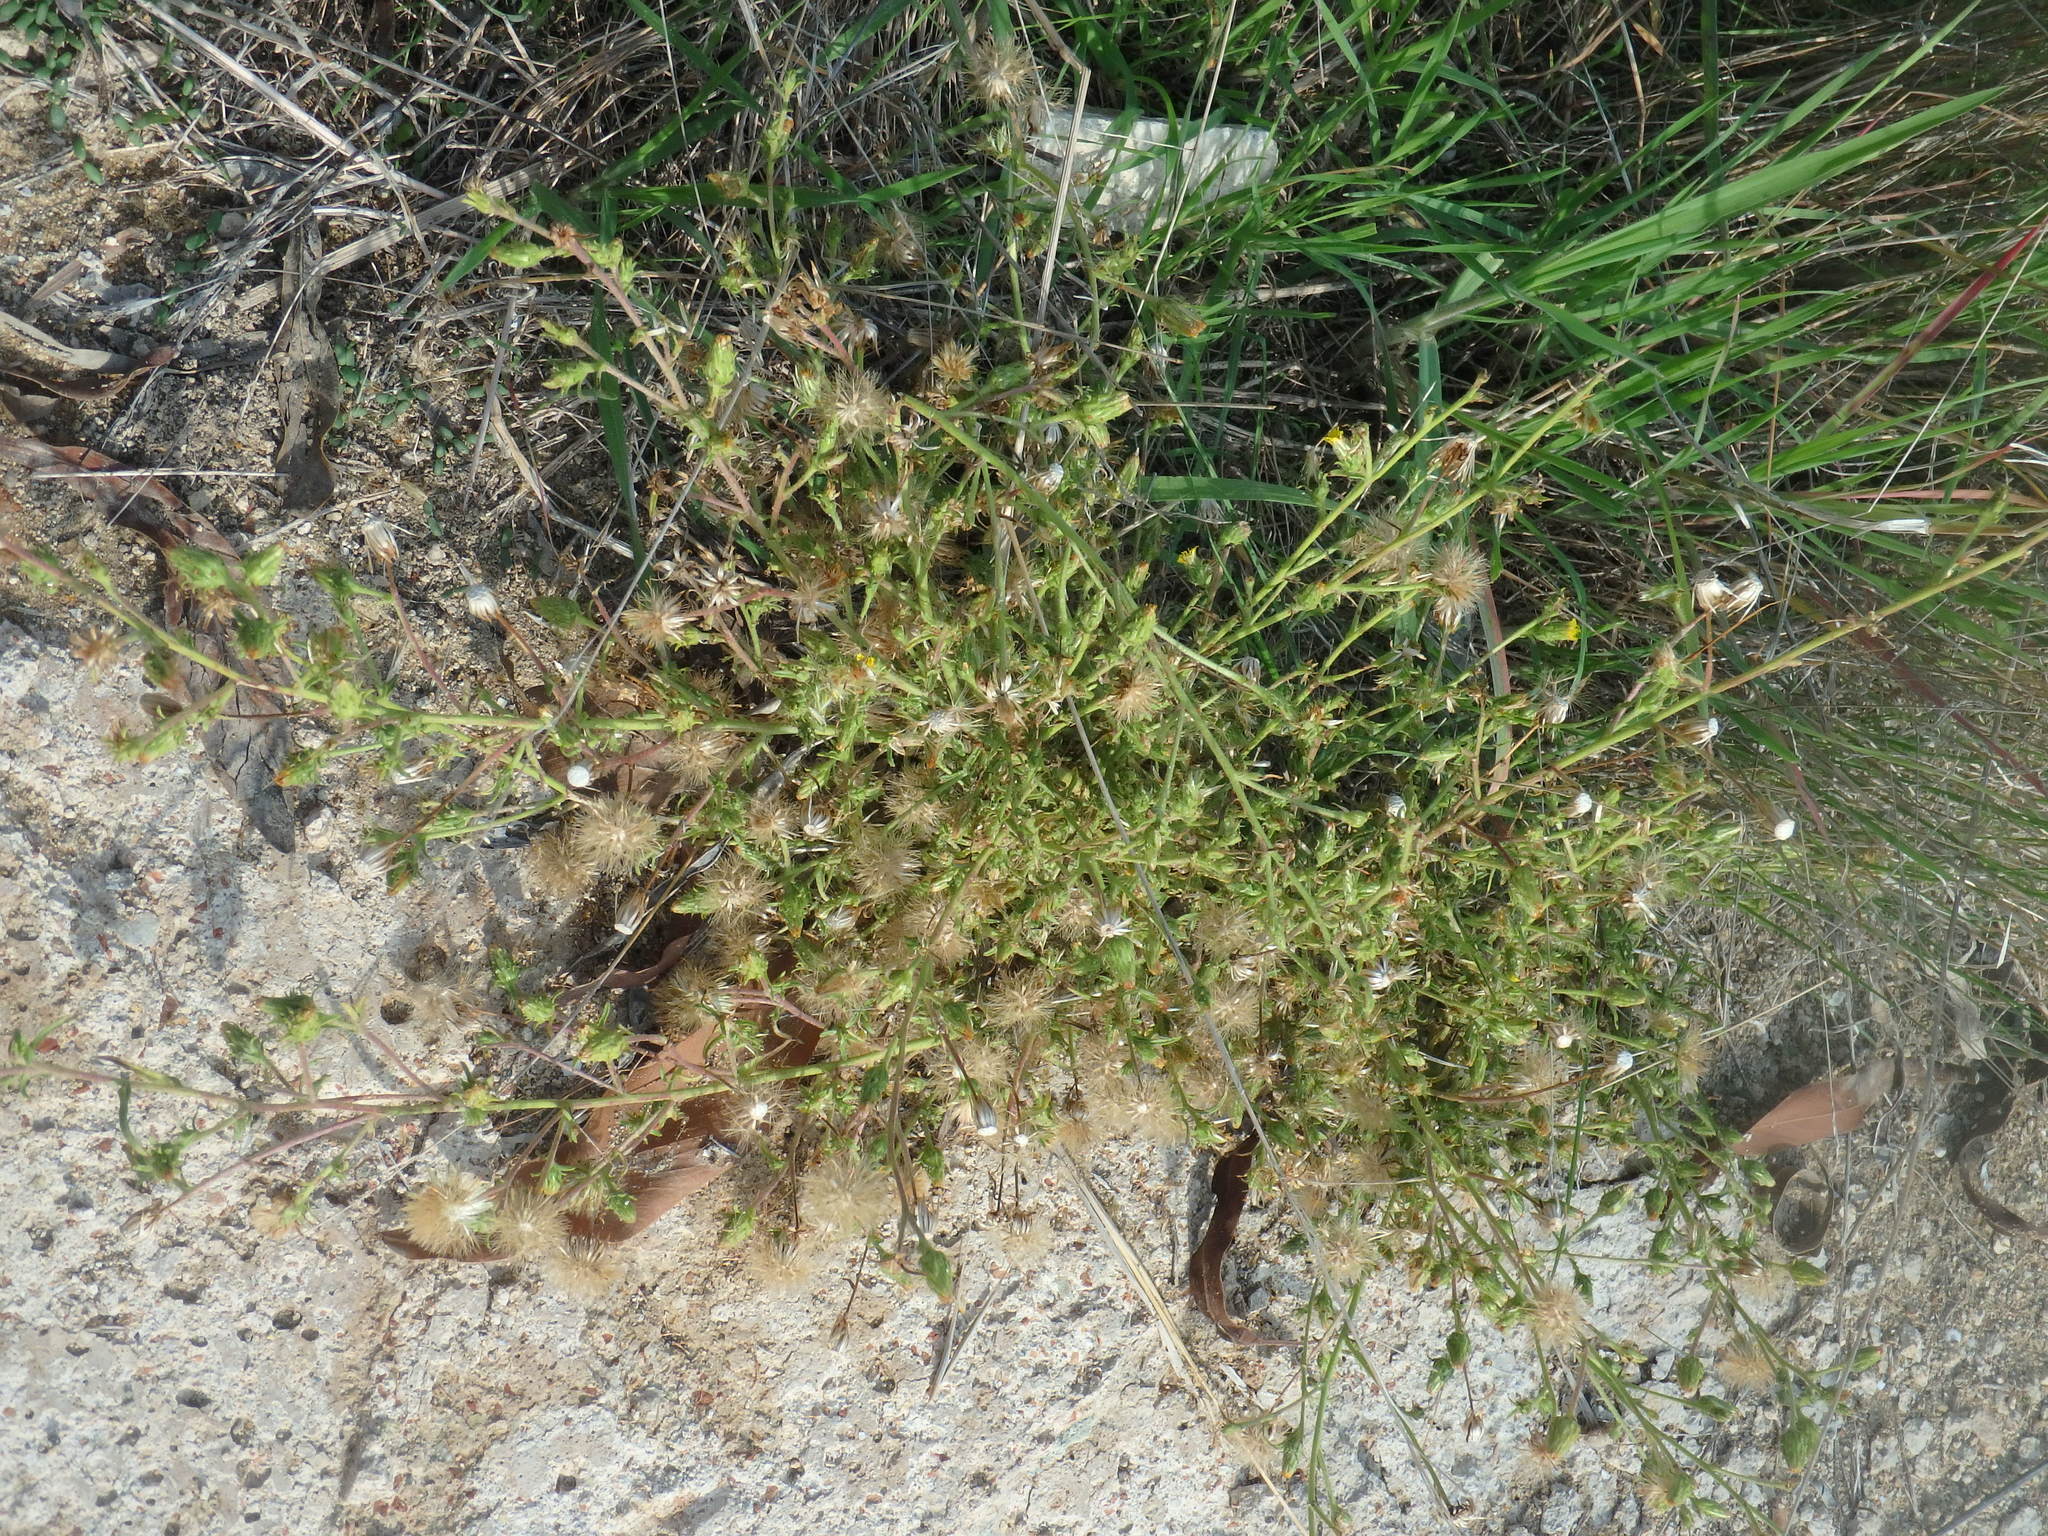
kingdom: Plantae
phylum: Tracheophyta
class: Magnoliopsida
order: Asterales
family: Asteraceae
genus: Dittrichia
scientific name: Dittrichia graveolens
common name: Stinking fleabane
